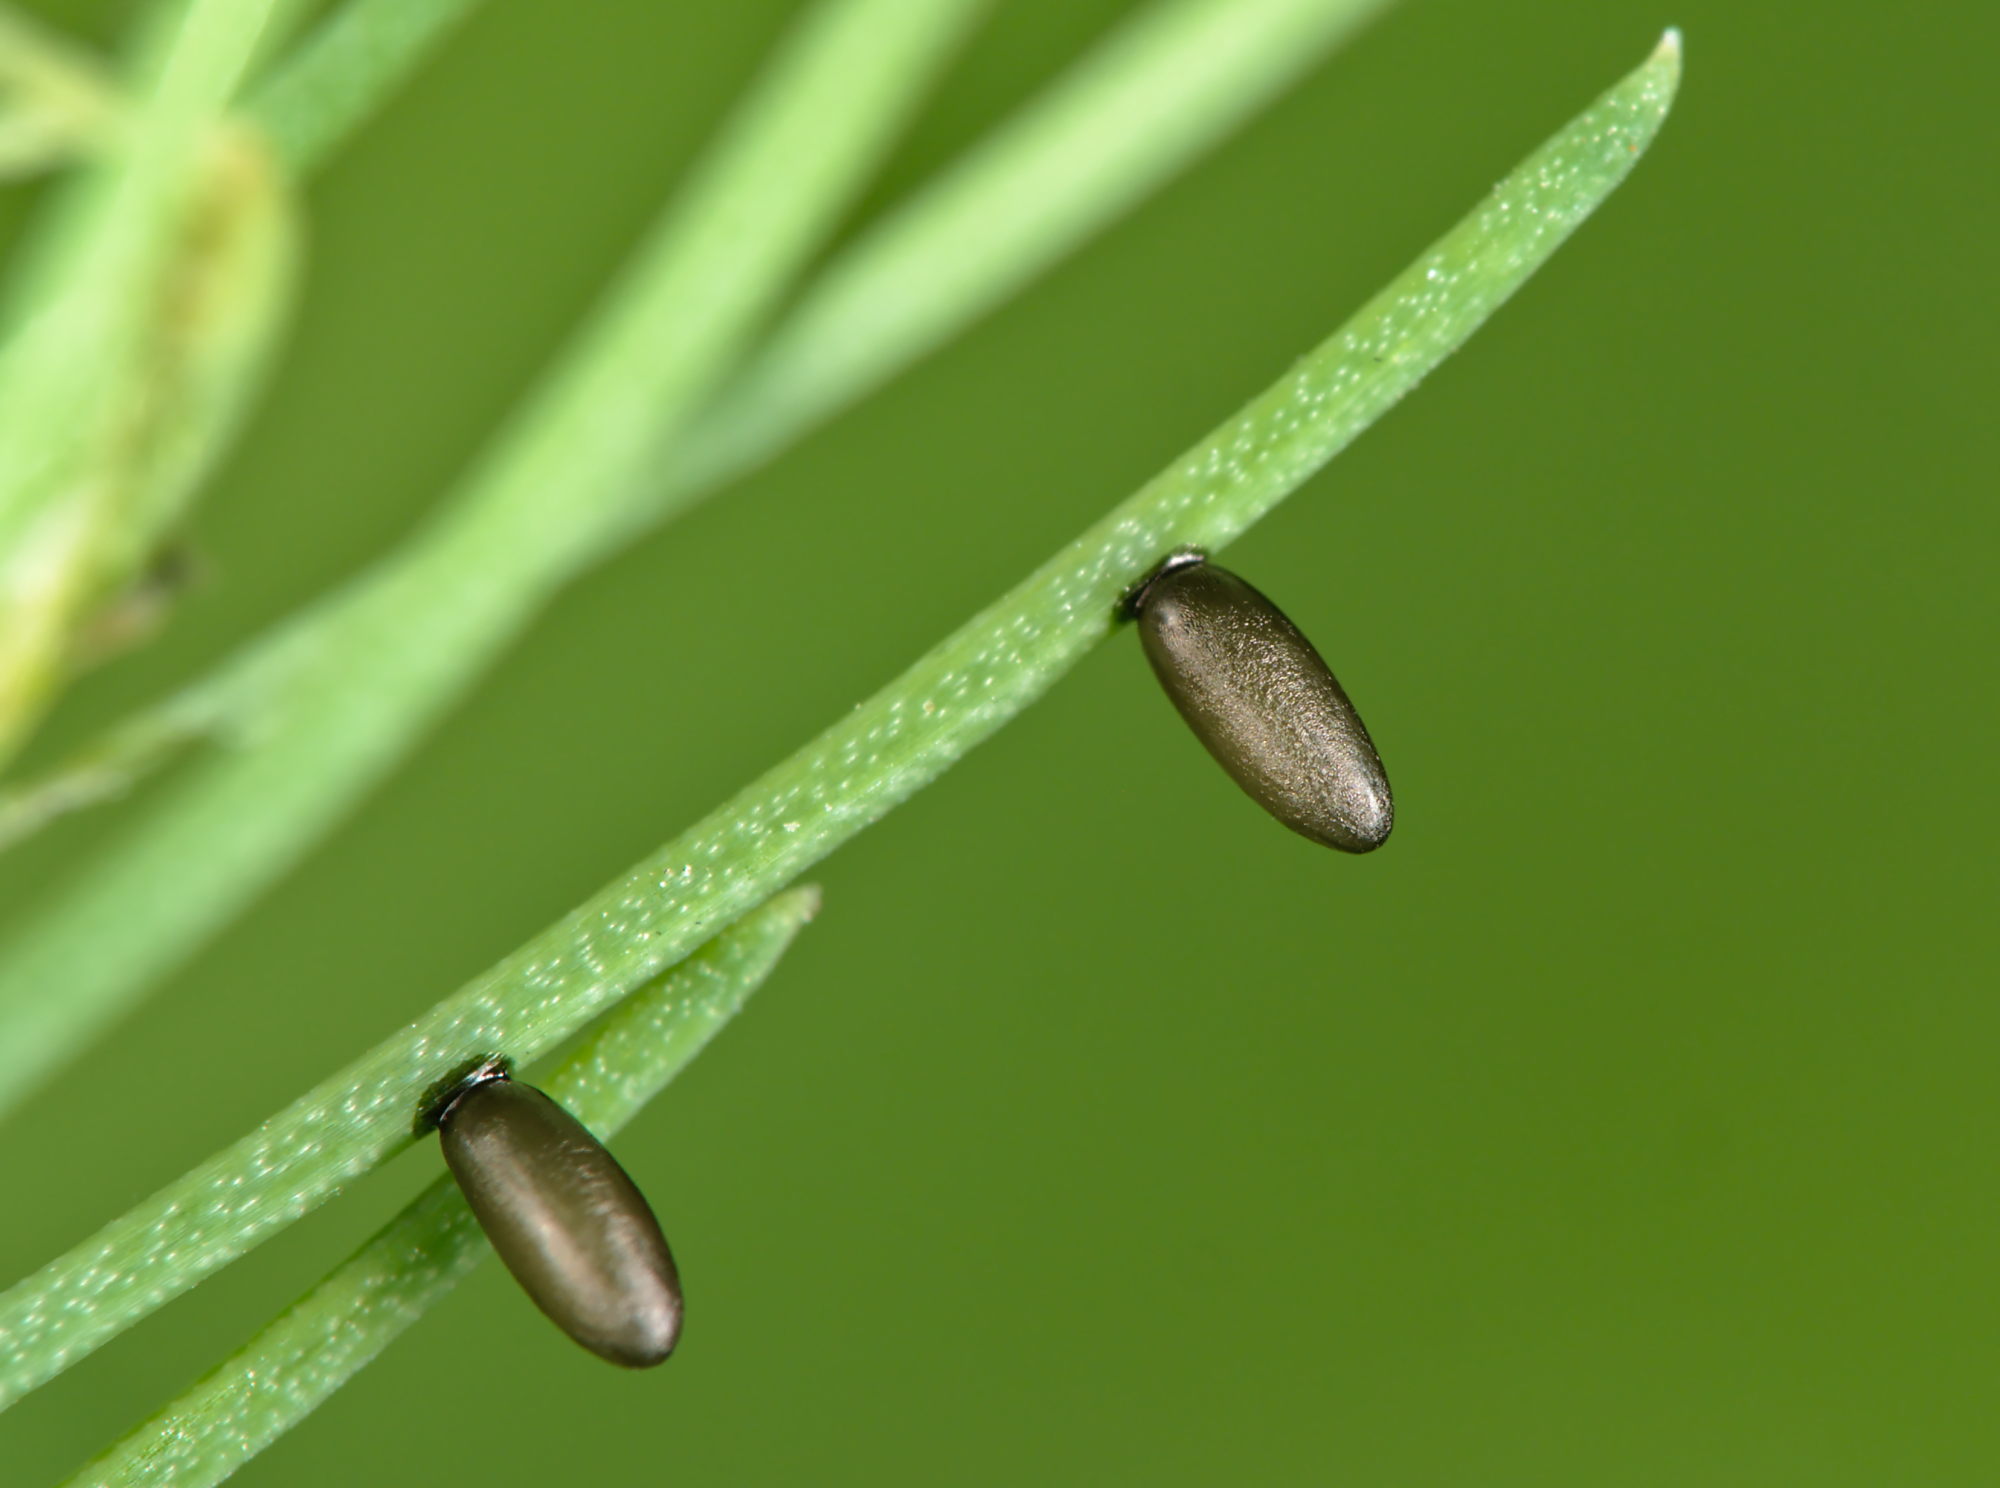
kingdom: Animalia
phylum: Arthropoda
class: Insecta
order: Coleoptera
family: Chrysomelidae
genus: Crioceris
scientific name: Crioceris asparagi
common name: Asparagus beetle
